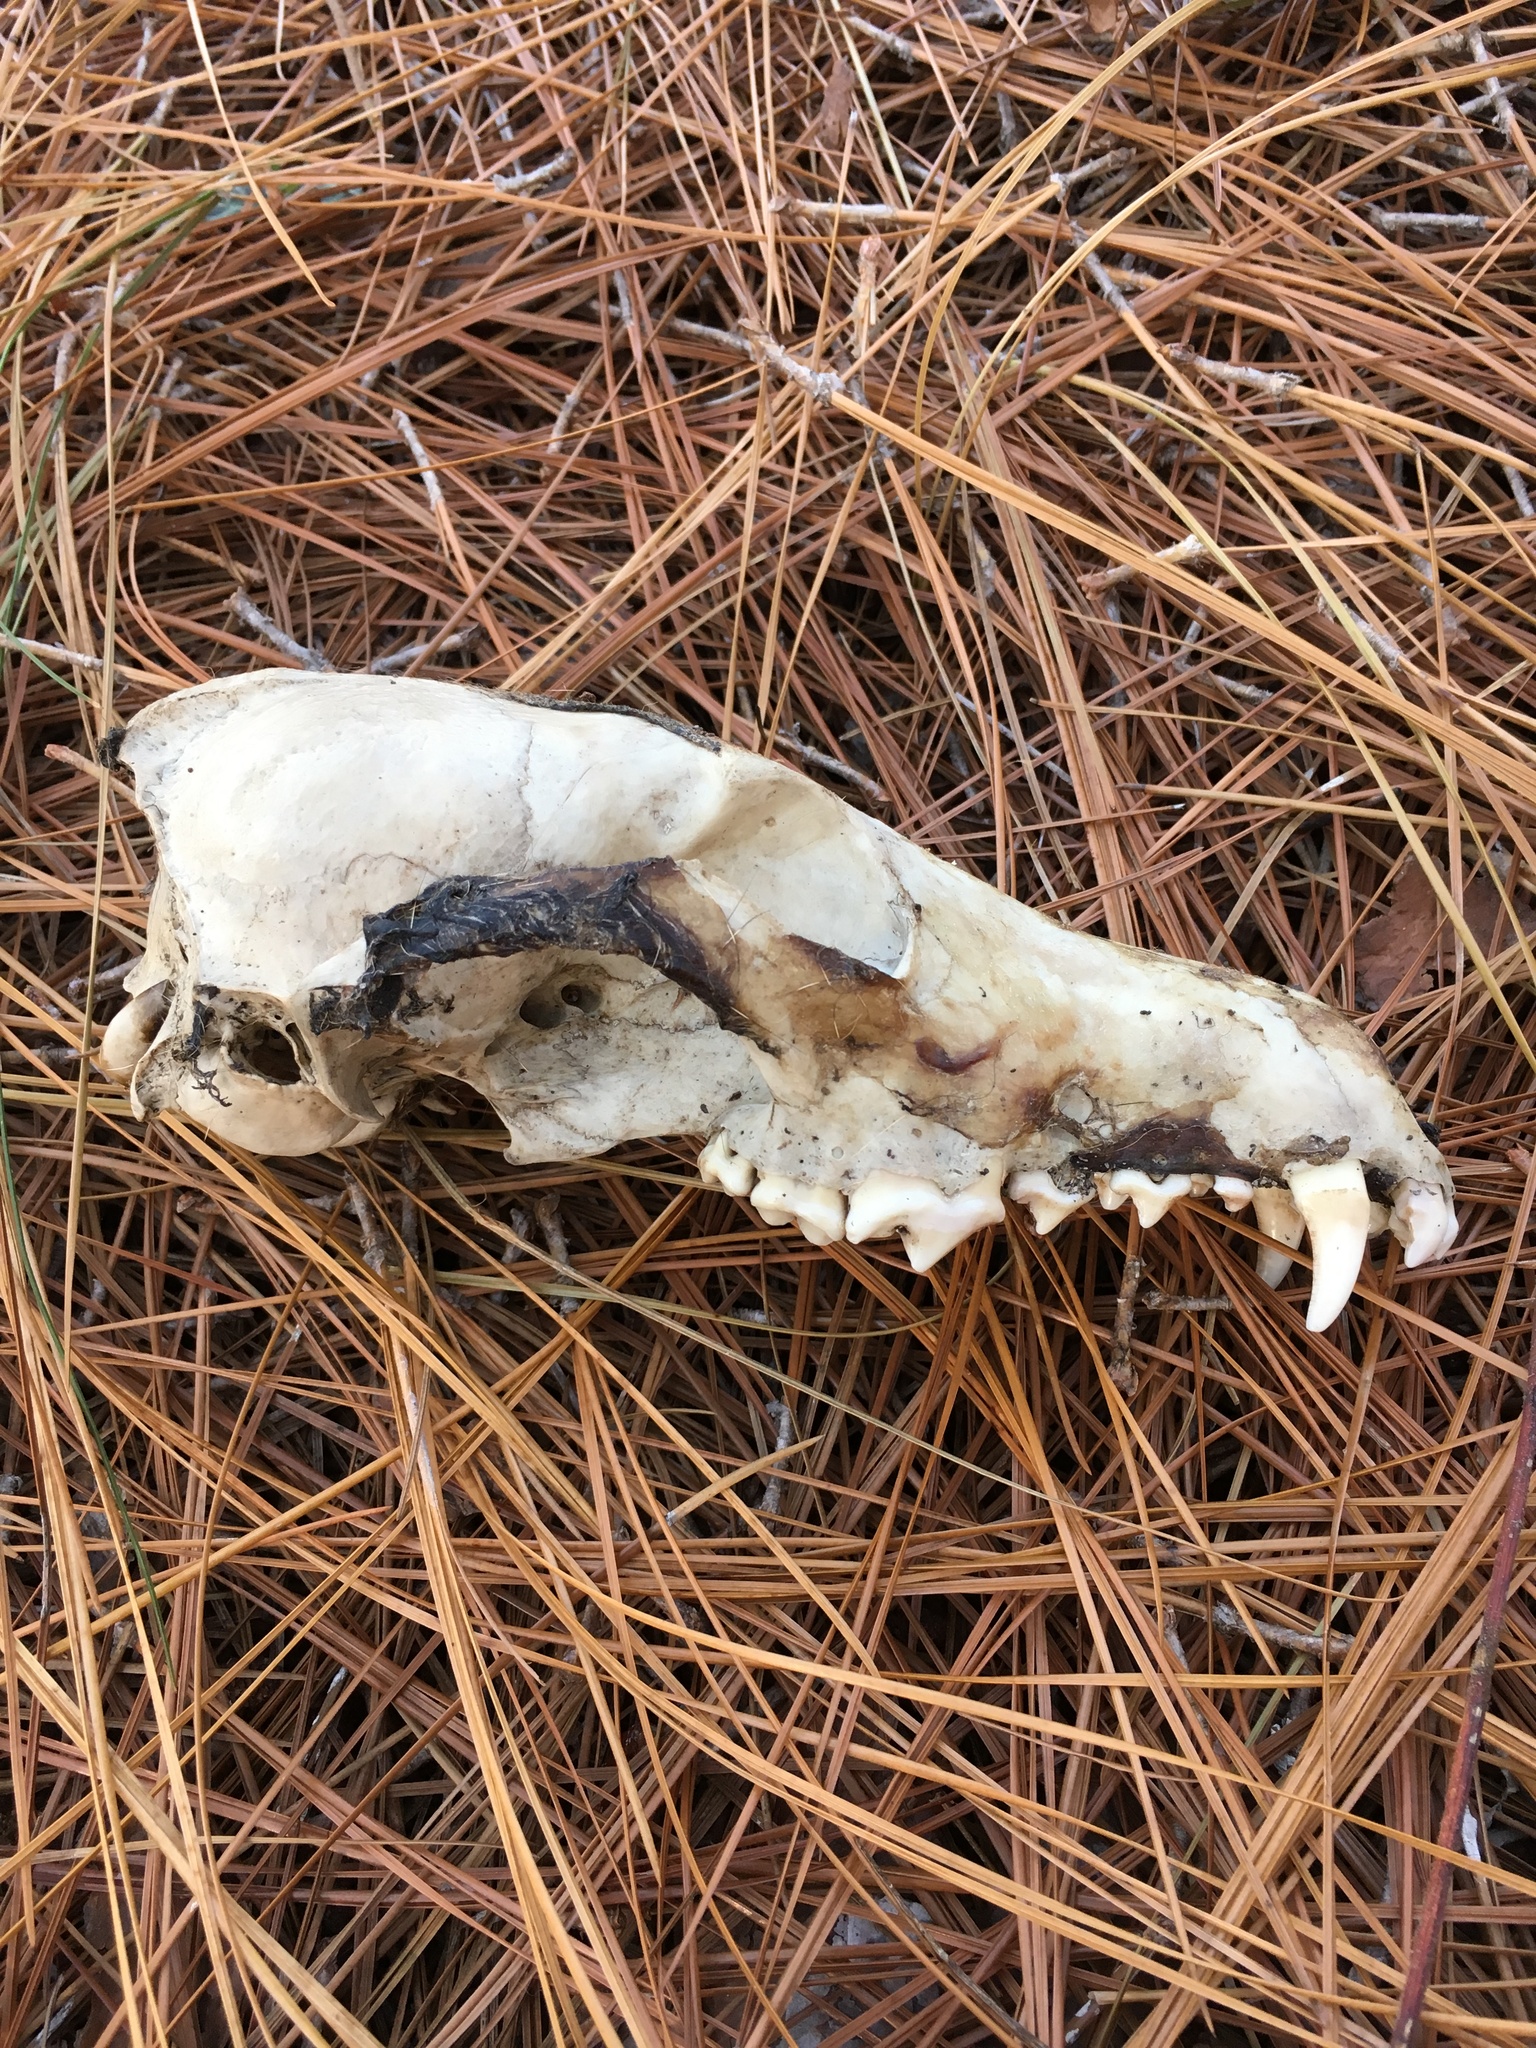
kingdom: Animalia
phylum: Chordata
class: Mammalia
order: Carnivora
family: Canidae
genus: Canis
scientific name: Canis latrans
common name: Coyote
